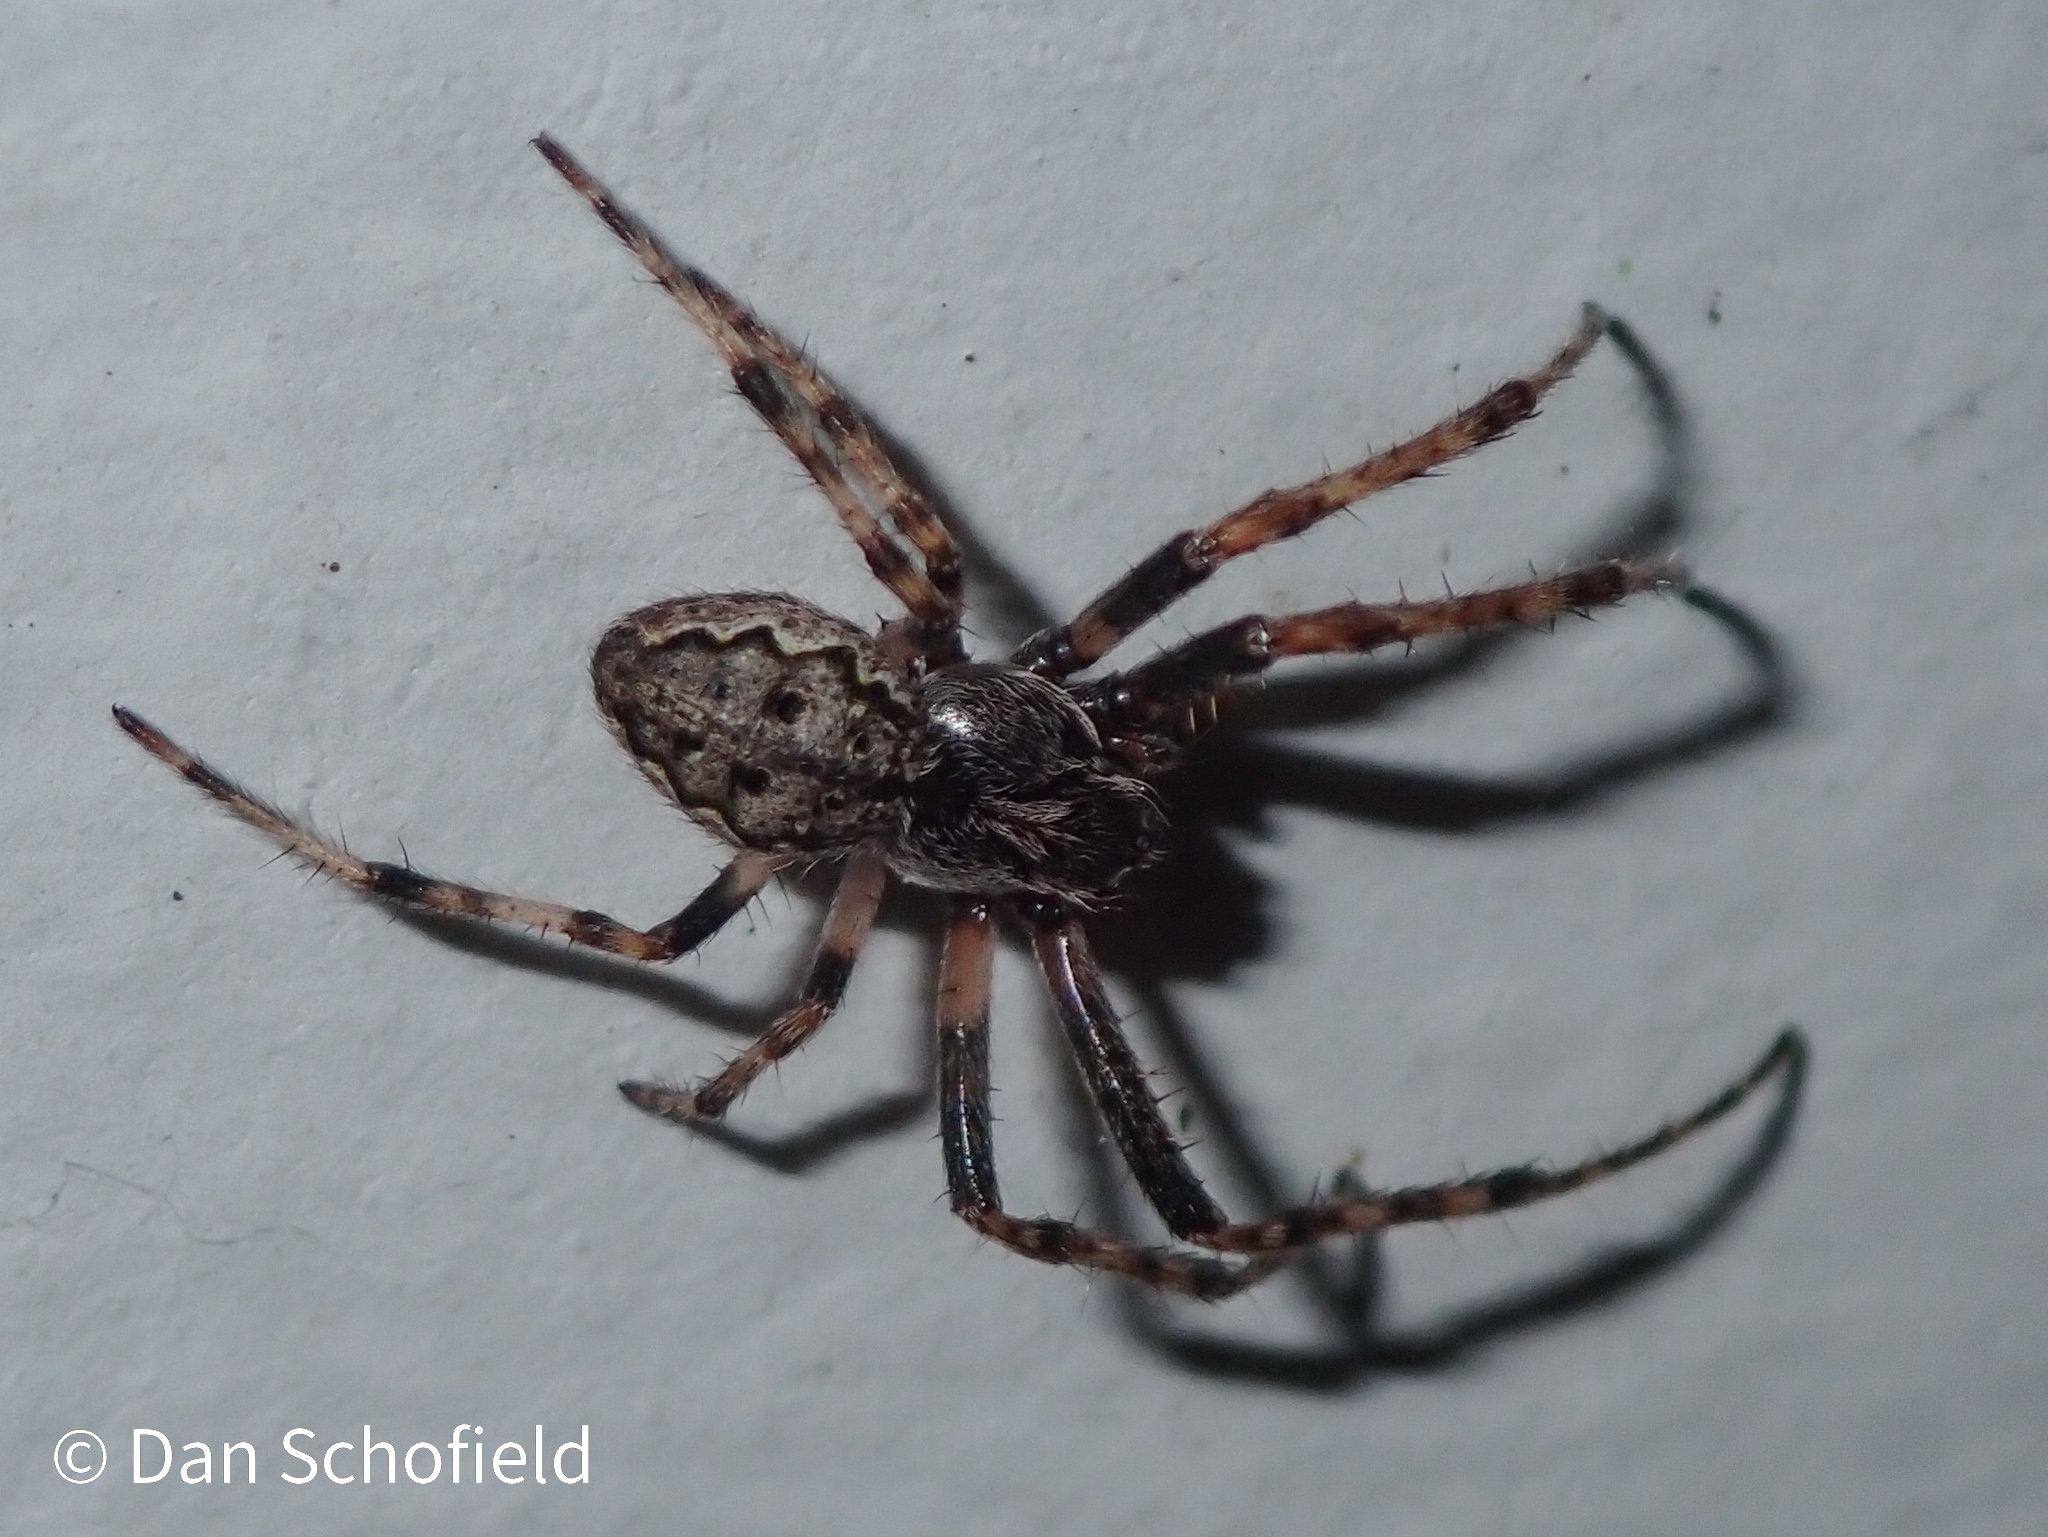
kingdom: Animalia
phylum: Arthropoda
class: Arachnida
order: Araneae
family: Araneidae
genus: Nuctenea
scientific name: Nuctenea umbratica
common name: Toad spider
